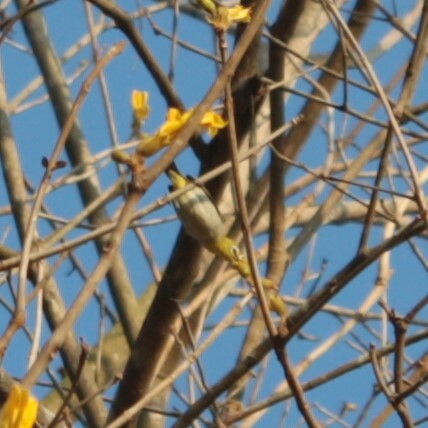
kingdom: Animalia
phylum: Chordata
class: Aves
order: Passeriformes
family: Zosteropidae
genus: Zosterops
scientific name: Zosterops simplex
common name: Swinhoe's white-eye
